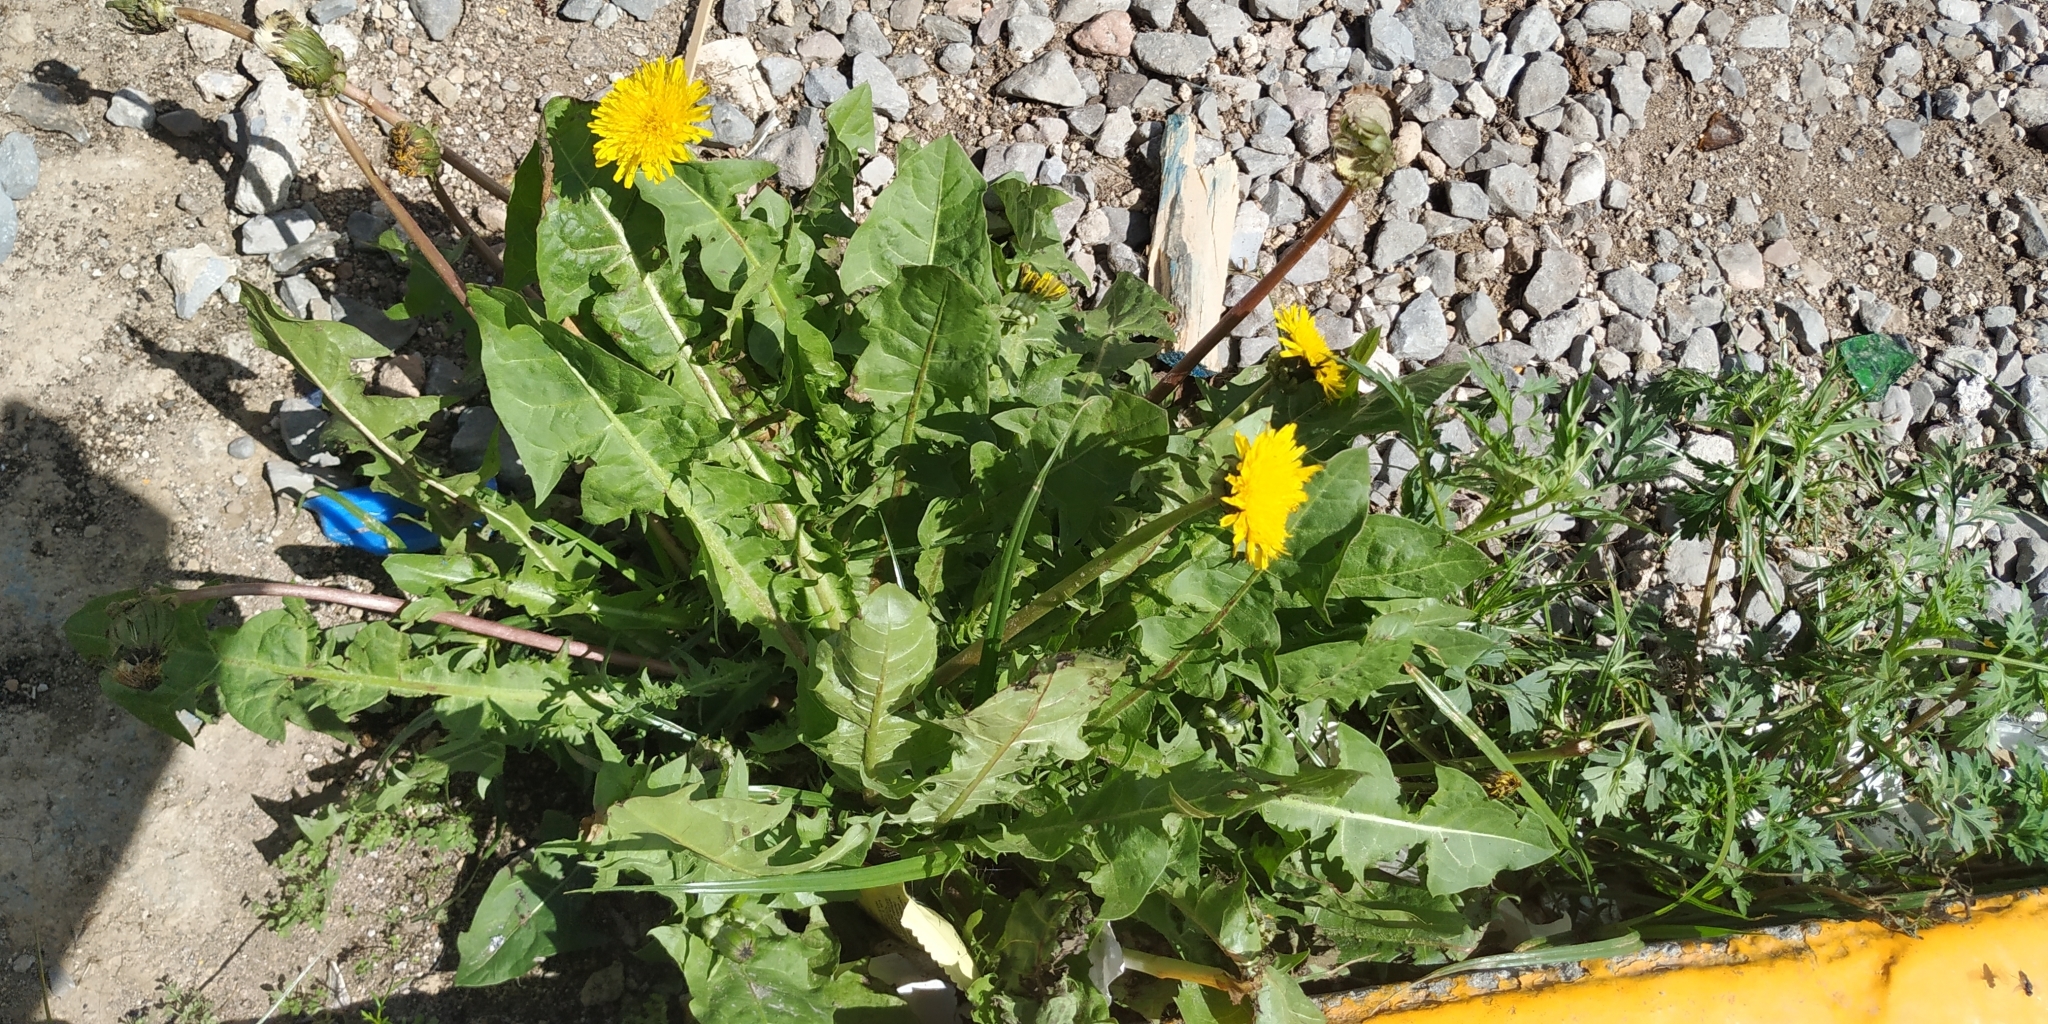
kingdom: Plantae
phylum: Tracheophyta
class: Magnoliopsida
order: Asterales
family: Asteraceae
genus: Taraxacum
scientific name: Taraxacum officinale
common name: Common dandelion
